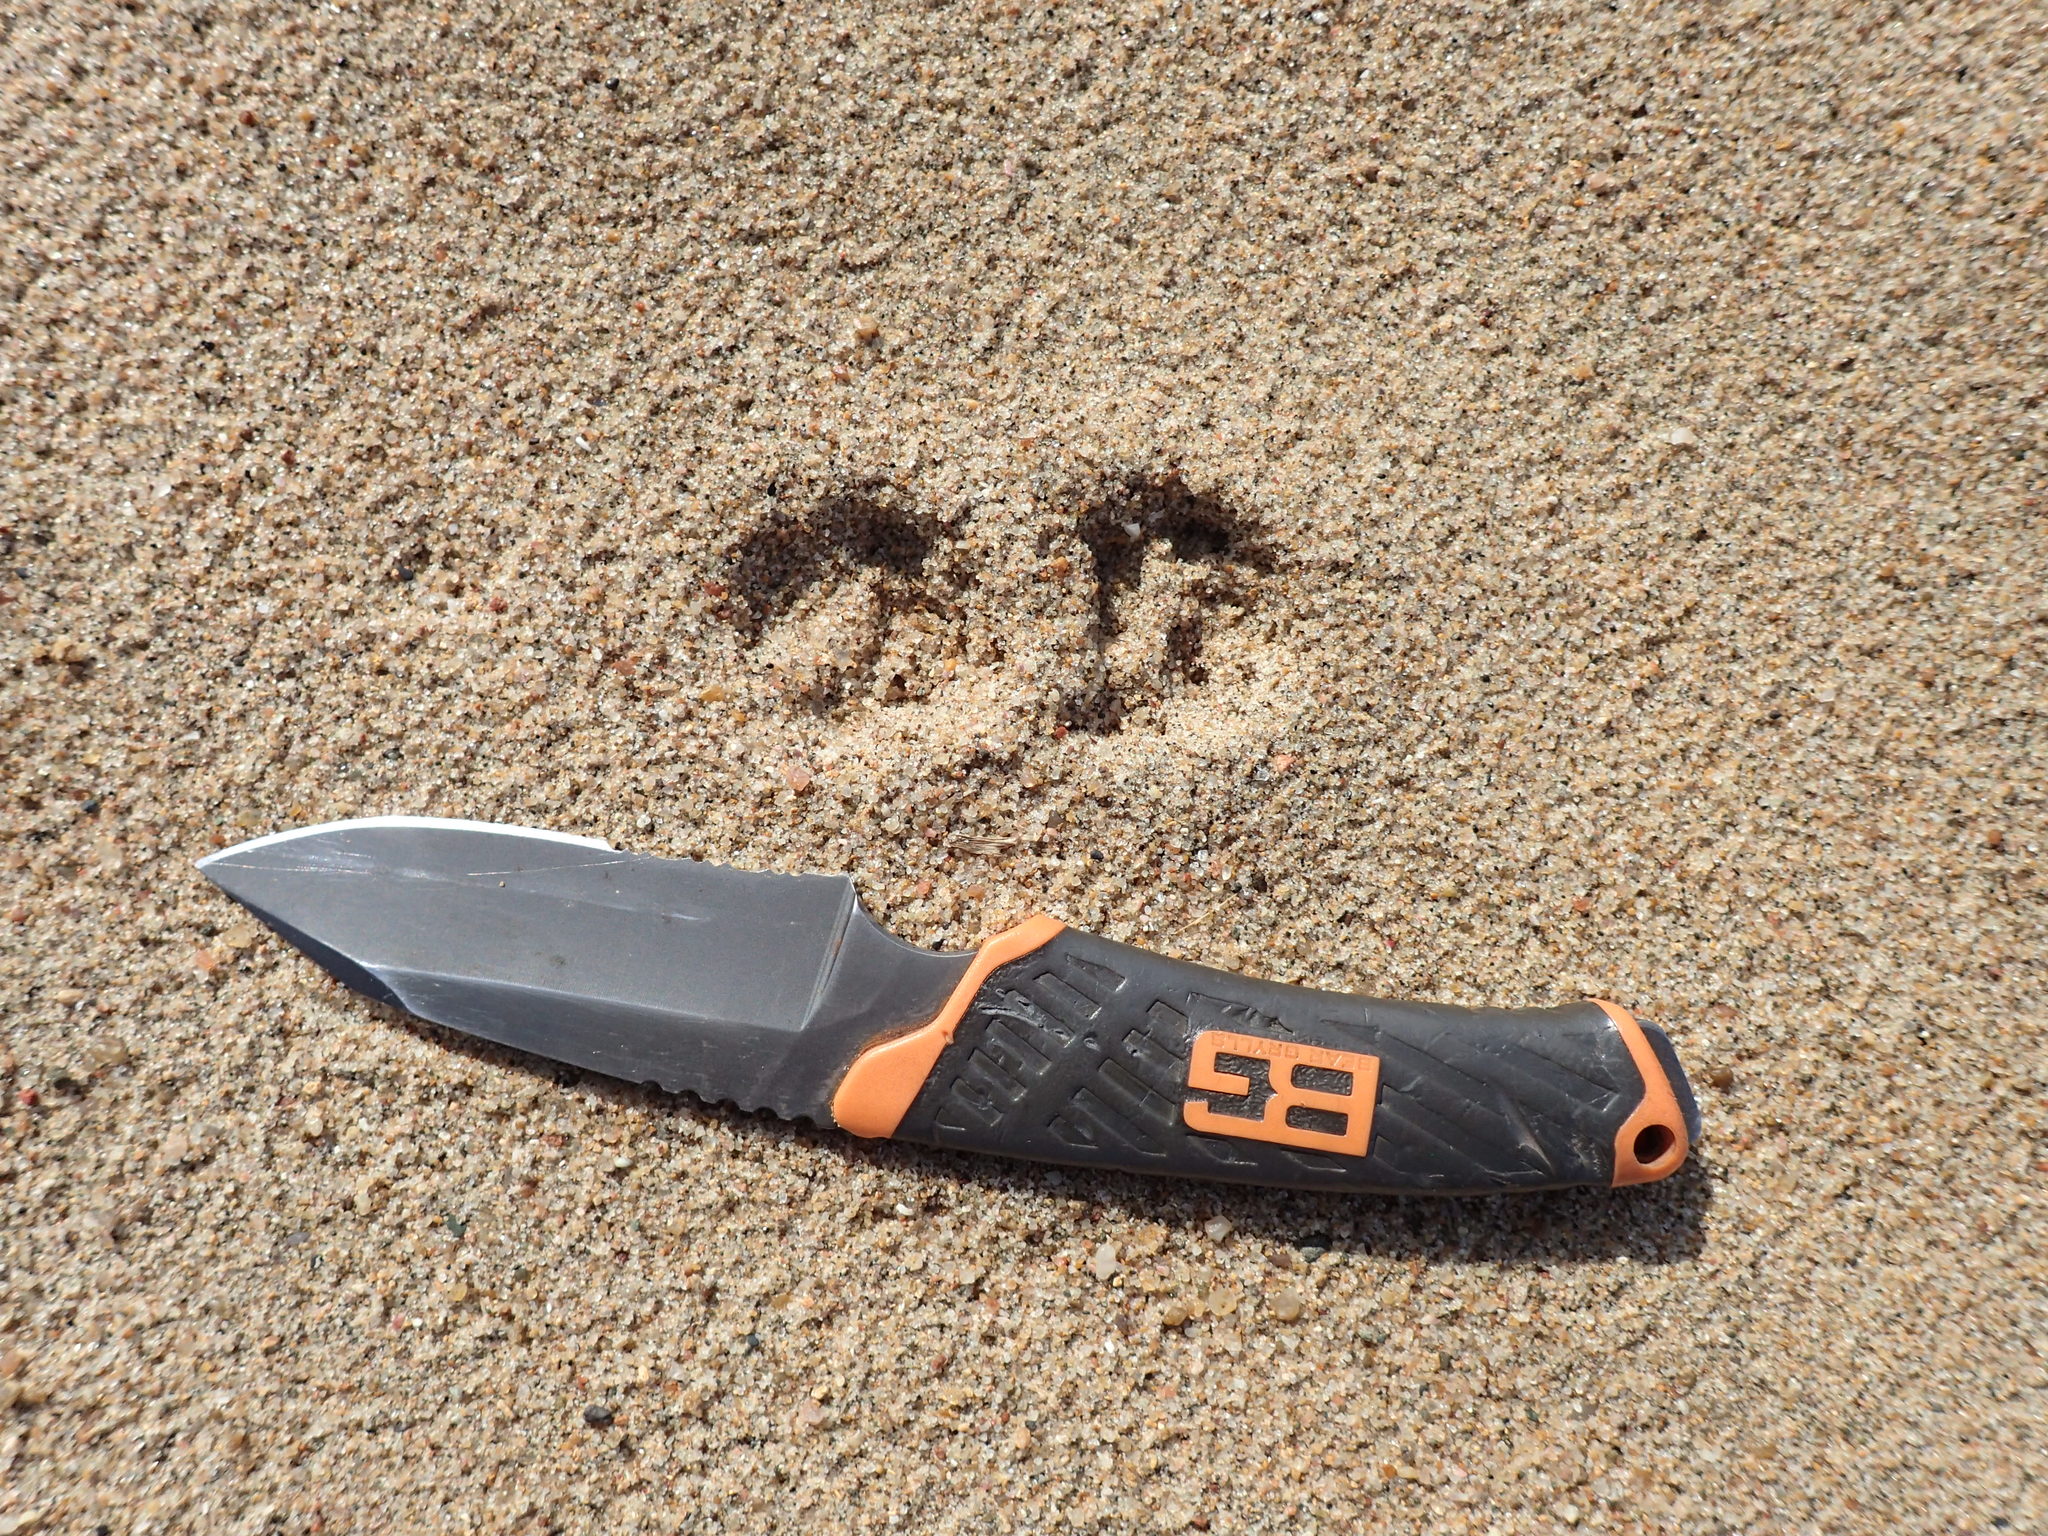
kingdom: Animalia
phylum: Chordata
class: Mammalia
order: Carnivora
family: Viverridae
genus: Genetta
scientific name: Genetta tigrina
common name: Cape genet
